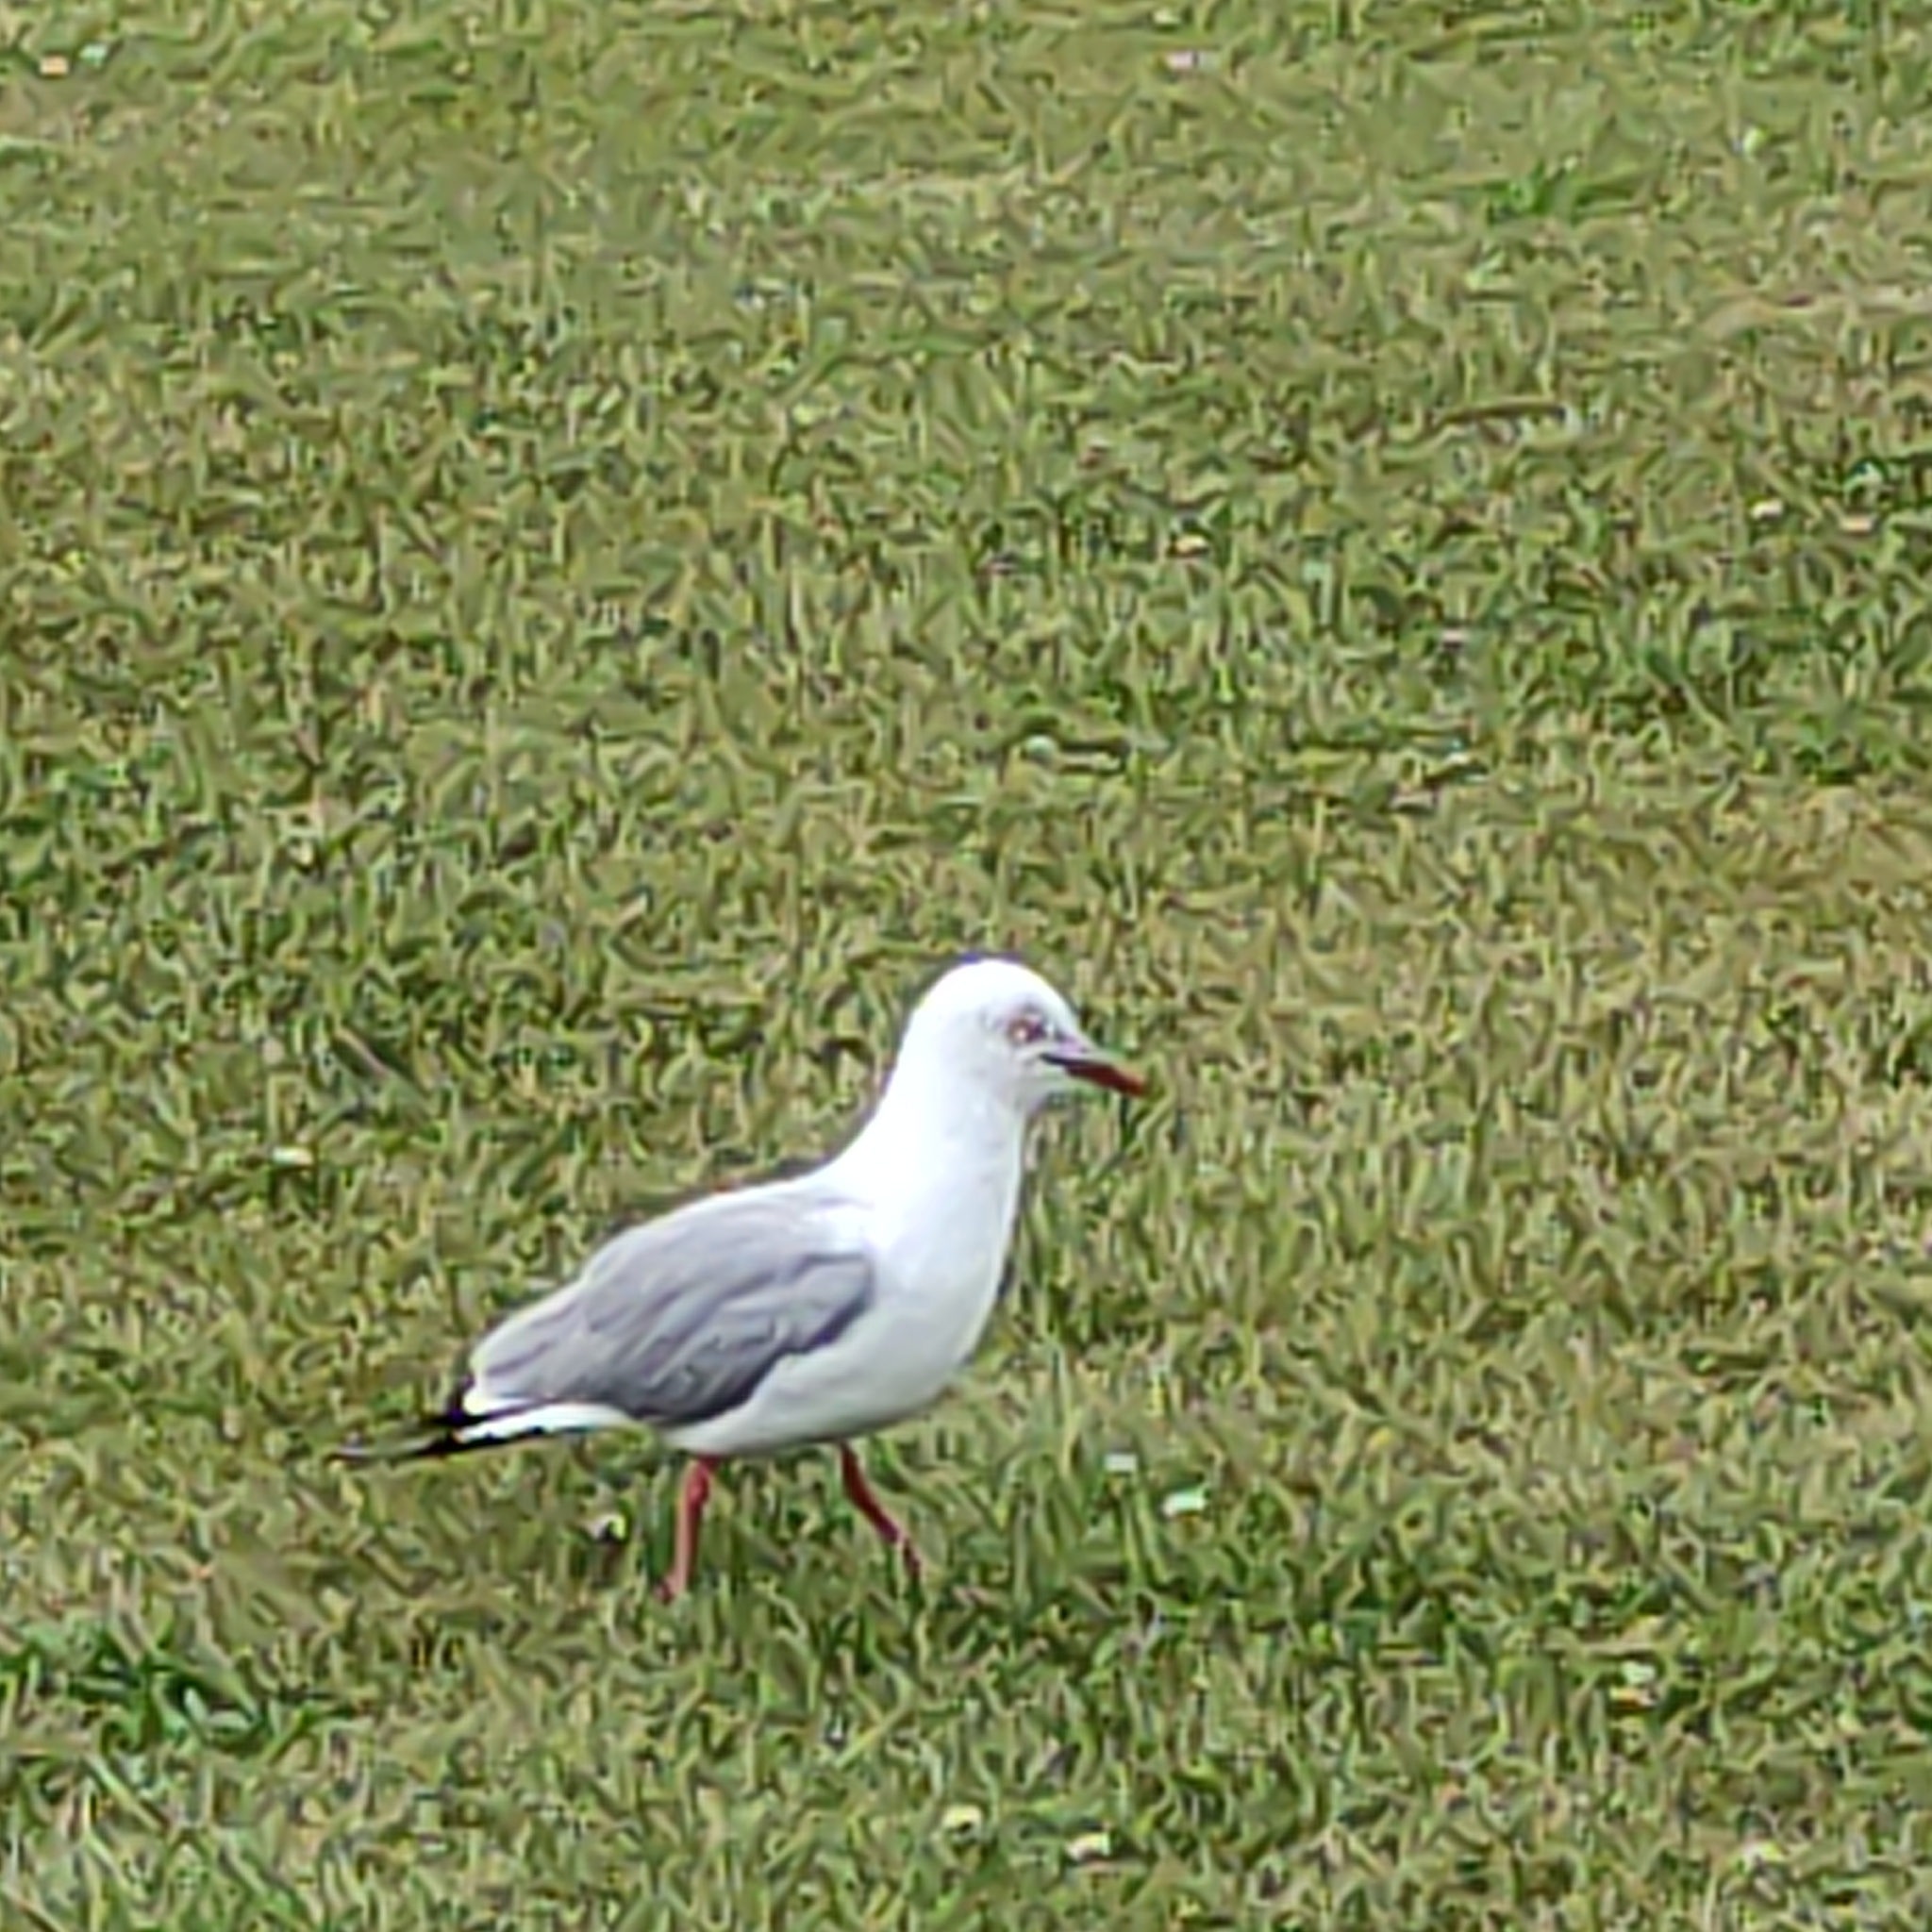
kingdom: Animalia
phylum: Chordata
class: Aves
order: Charadriiformes
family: Laridae
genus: Chroicocephalus
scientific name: Chroicocephalus novaehollandiae
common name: Silver gull
